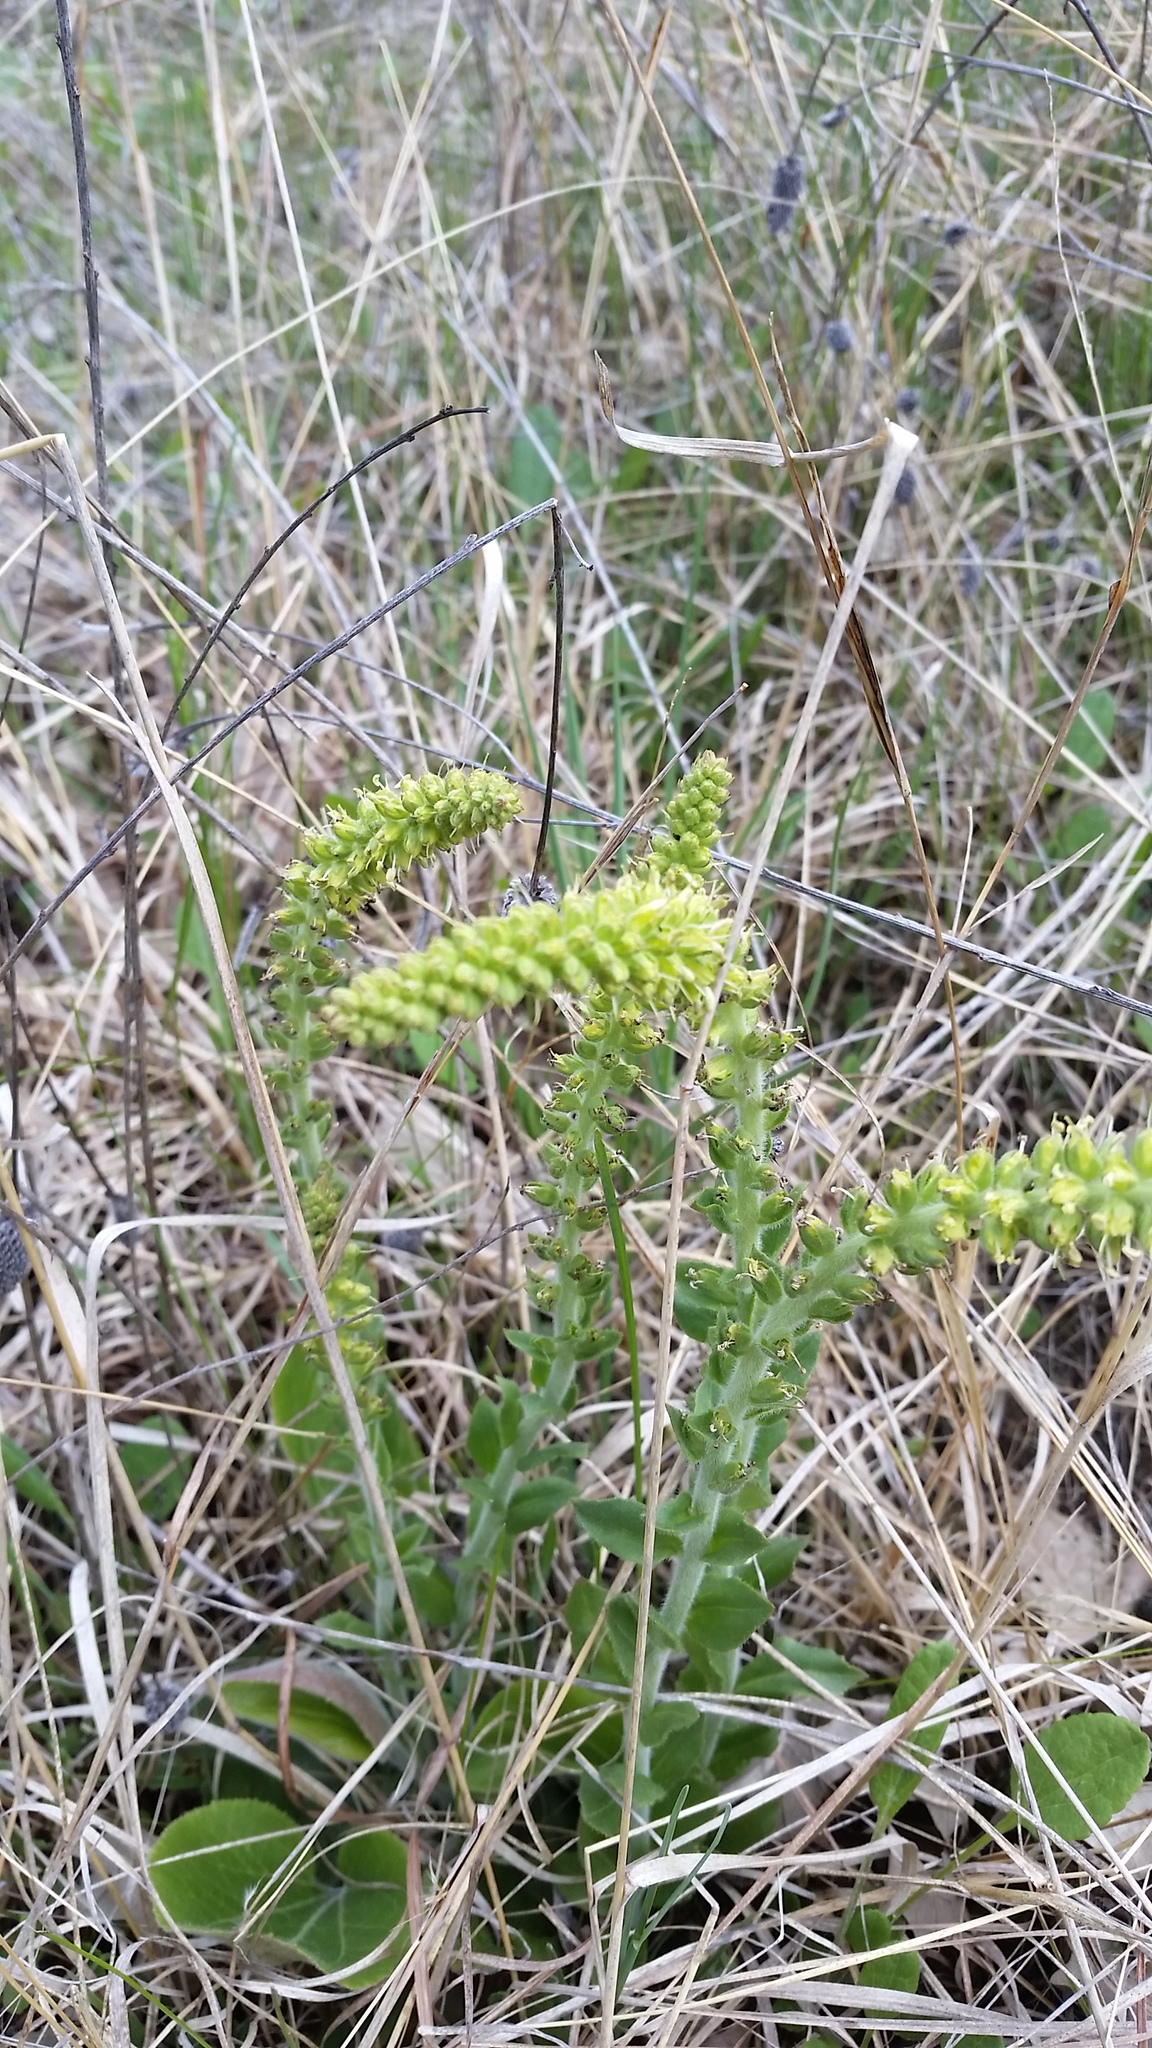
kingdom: Plantae
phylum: Tracheophyta
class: Magnoliopsida
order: Lamiales
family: Plantaginaceae
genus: Synthyris
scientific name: Synthyris bullii
